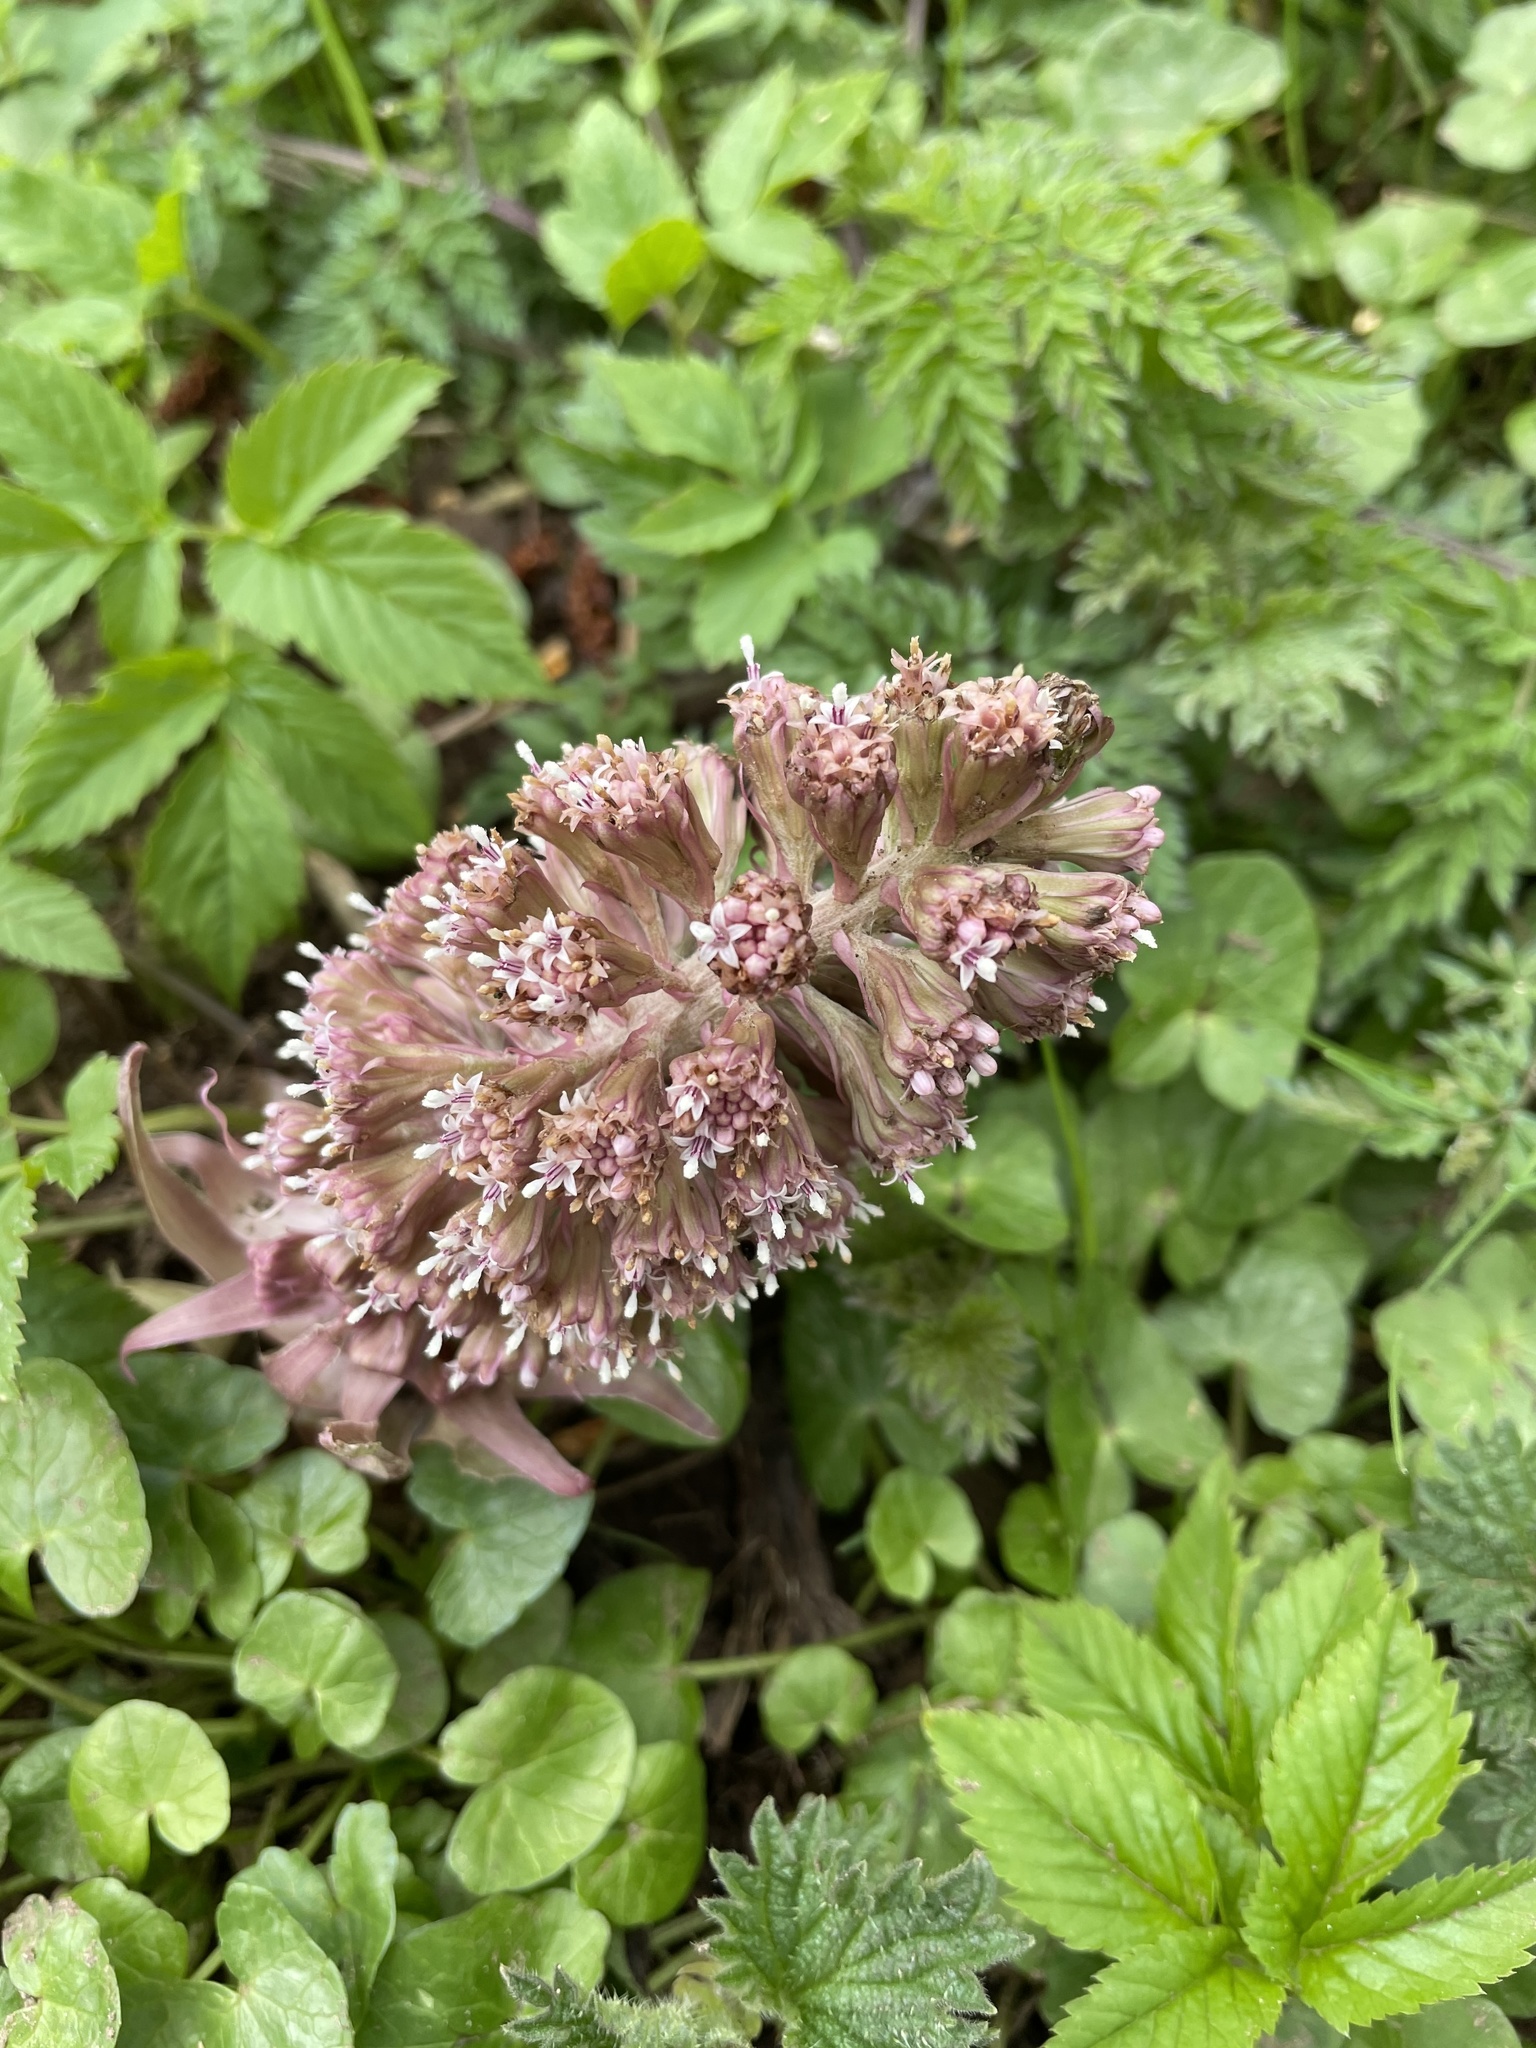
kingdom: Plantae
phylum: Tracheophyta
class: Magnoliopsida
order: Asterales
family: Asteraceae
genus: Petasites
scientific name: Petasites hybridus
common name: Butterbur
